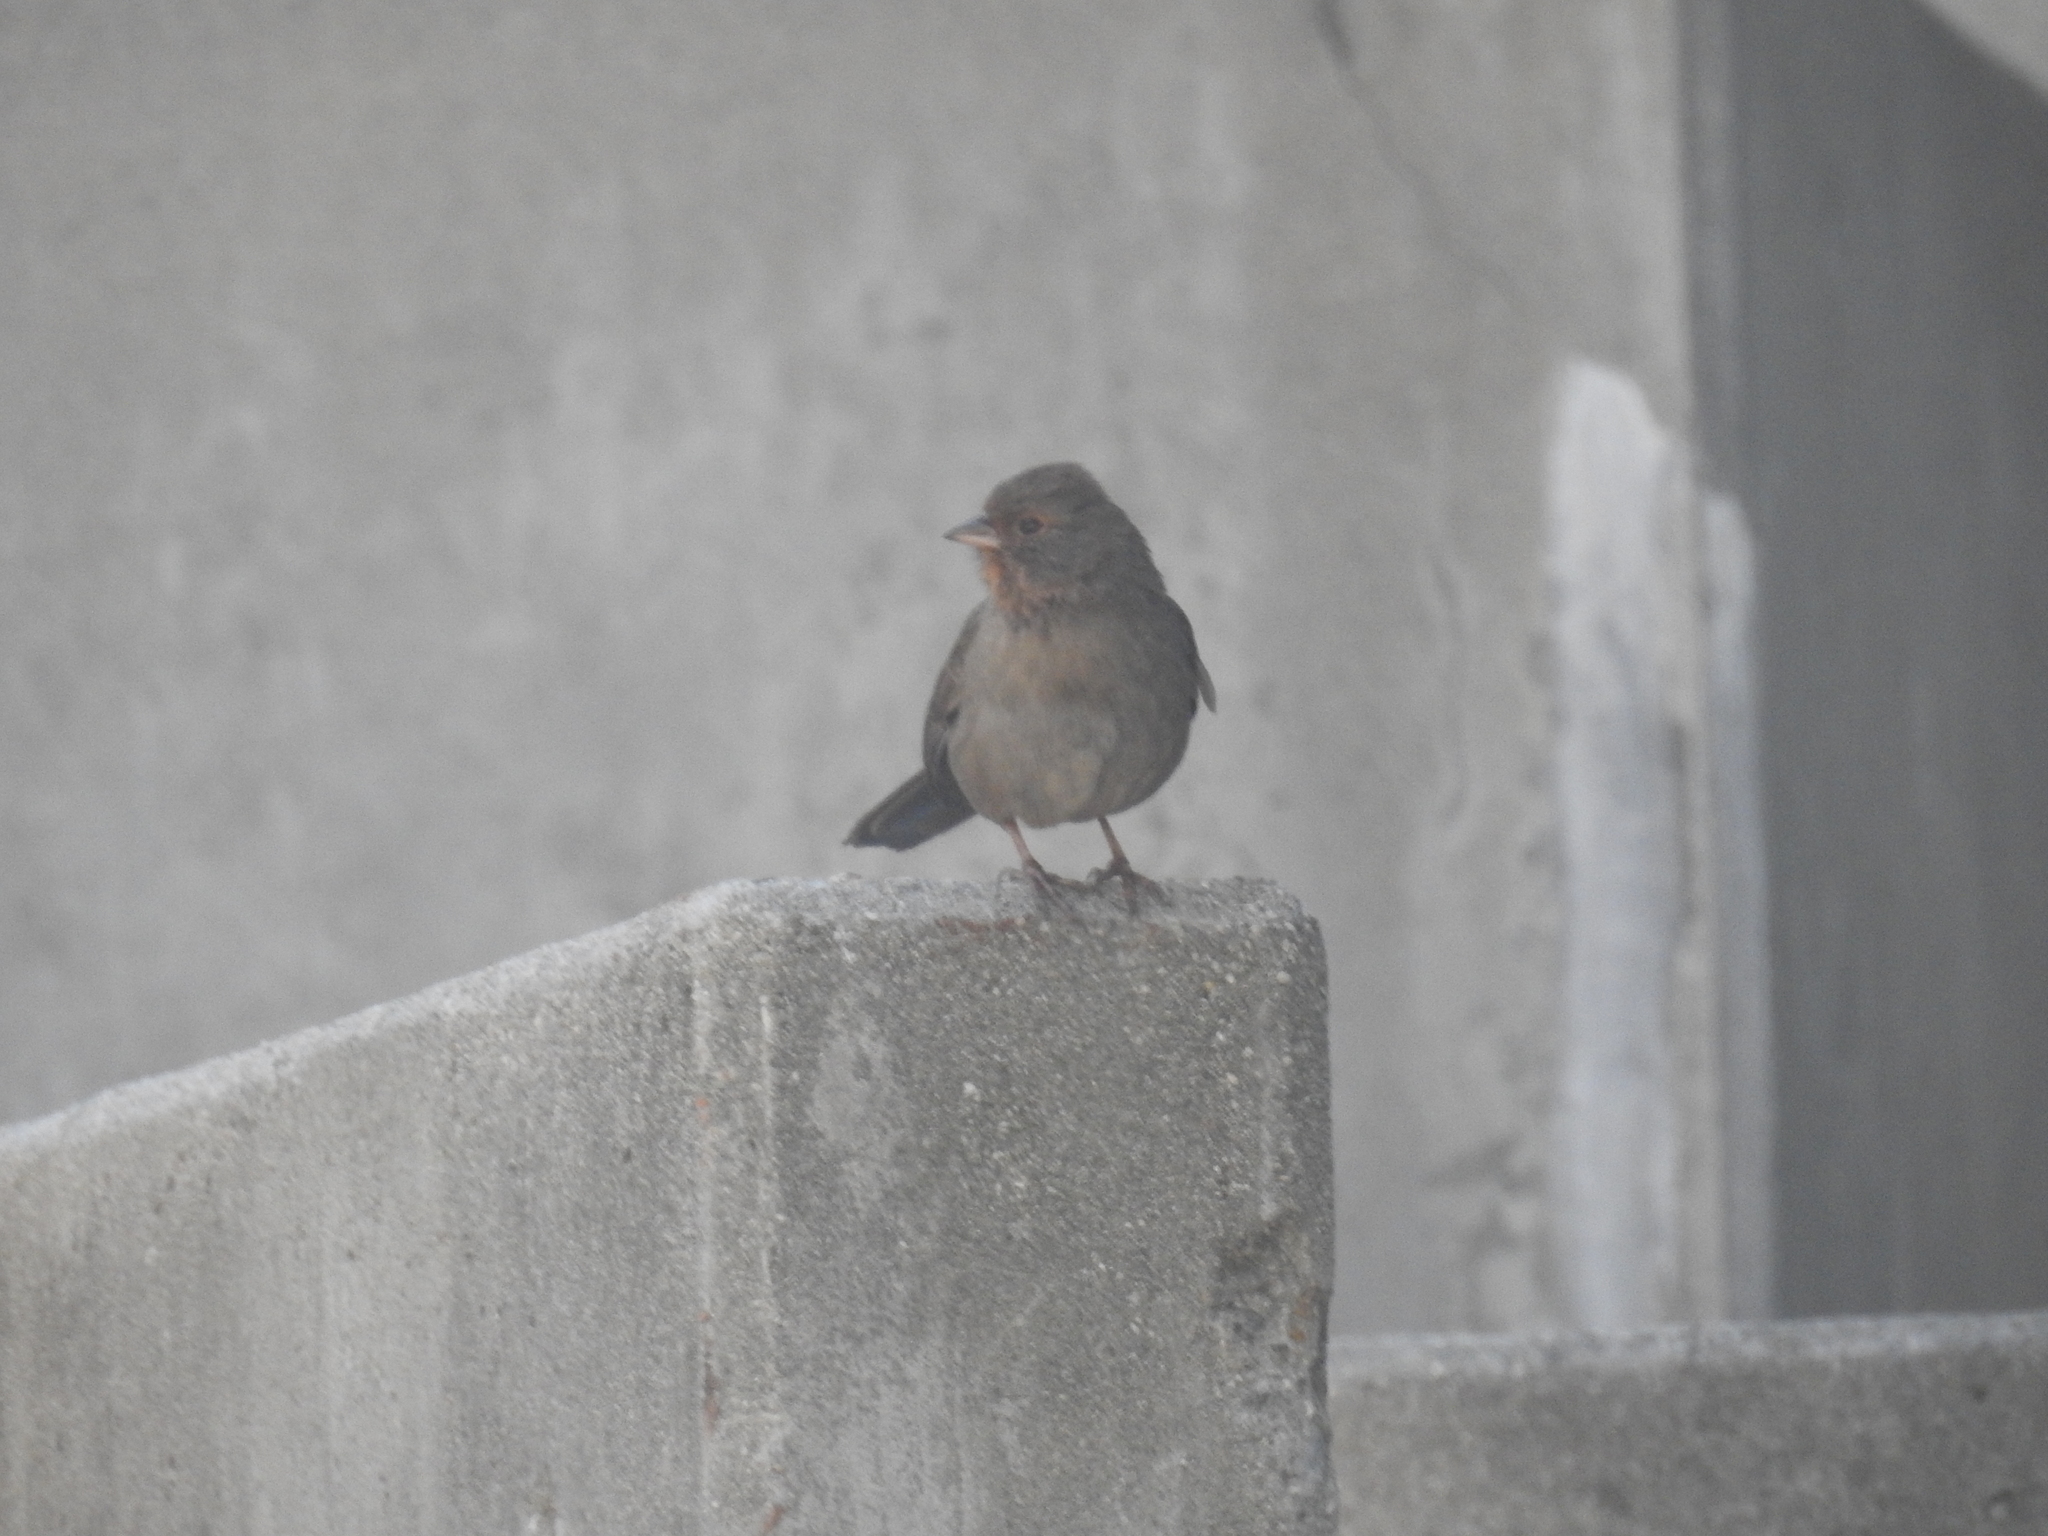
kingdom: Animalia
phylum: Chordata
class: Aves
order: Passeriformes
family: Passerellidae
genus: Melozone
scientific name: Melozone crissalis
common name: California towhee
